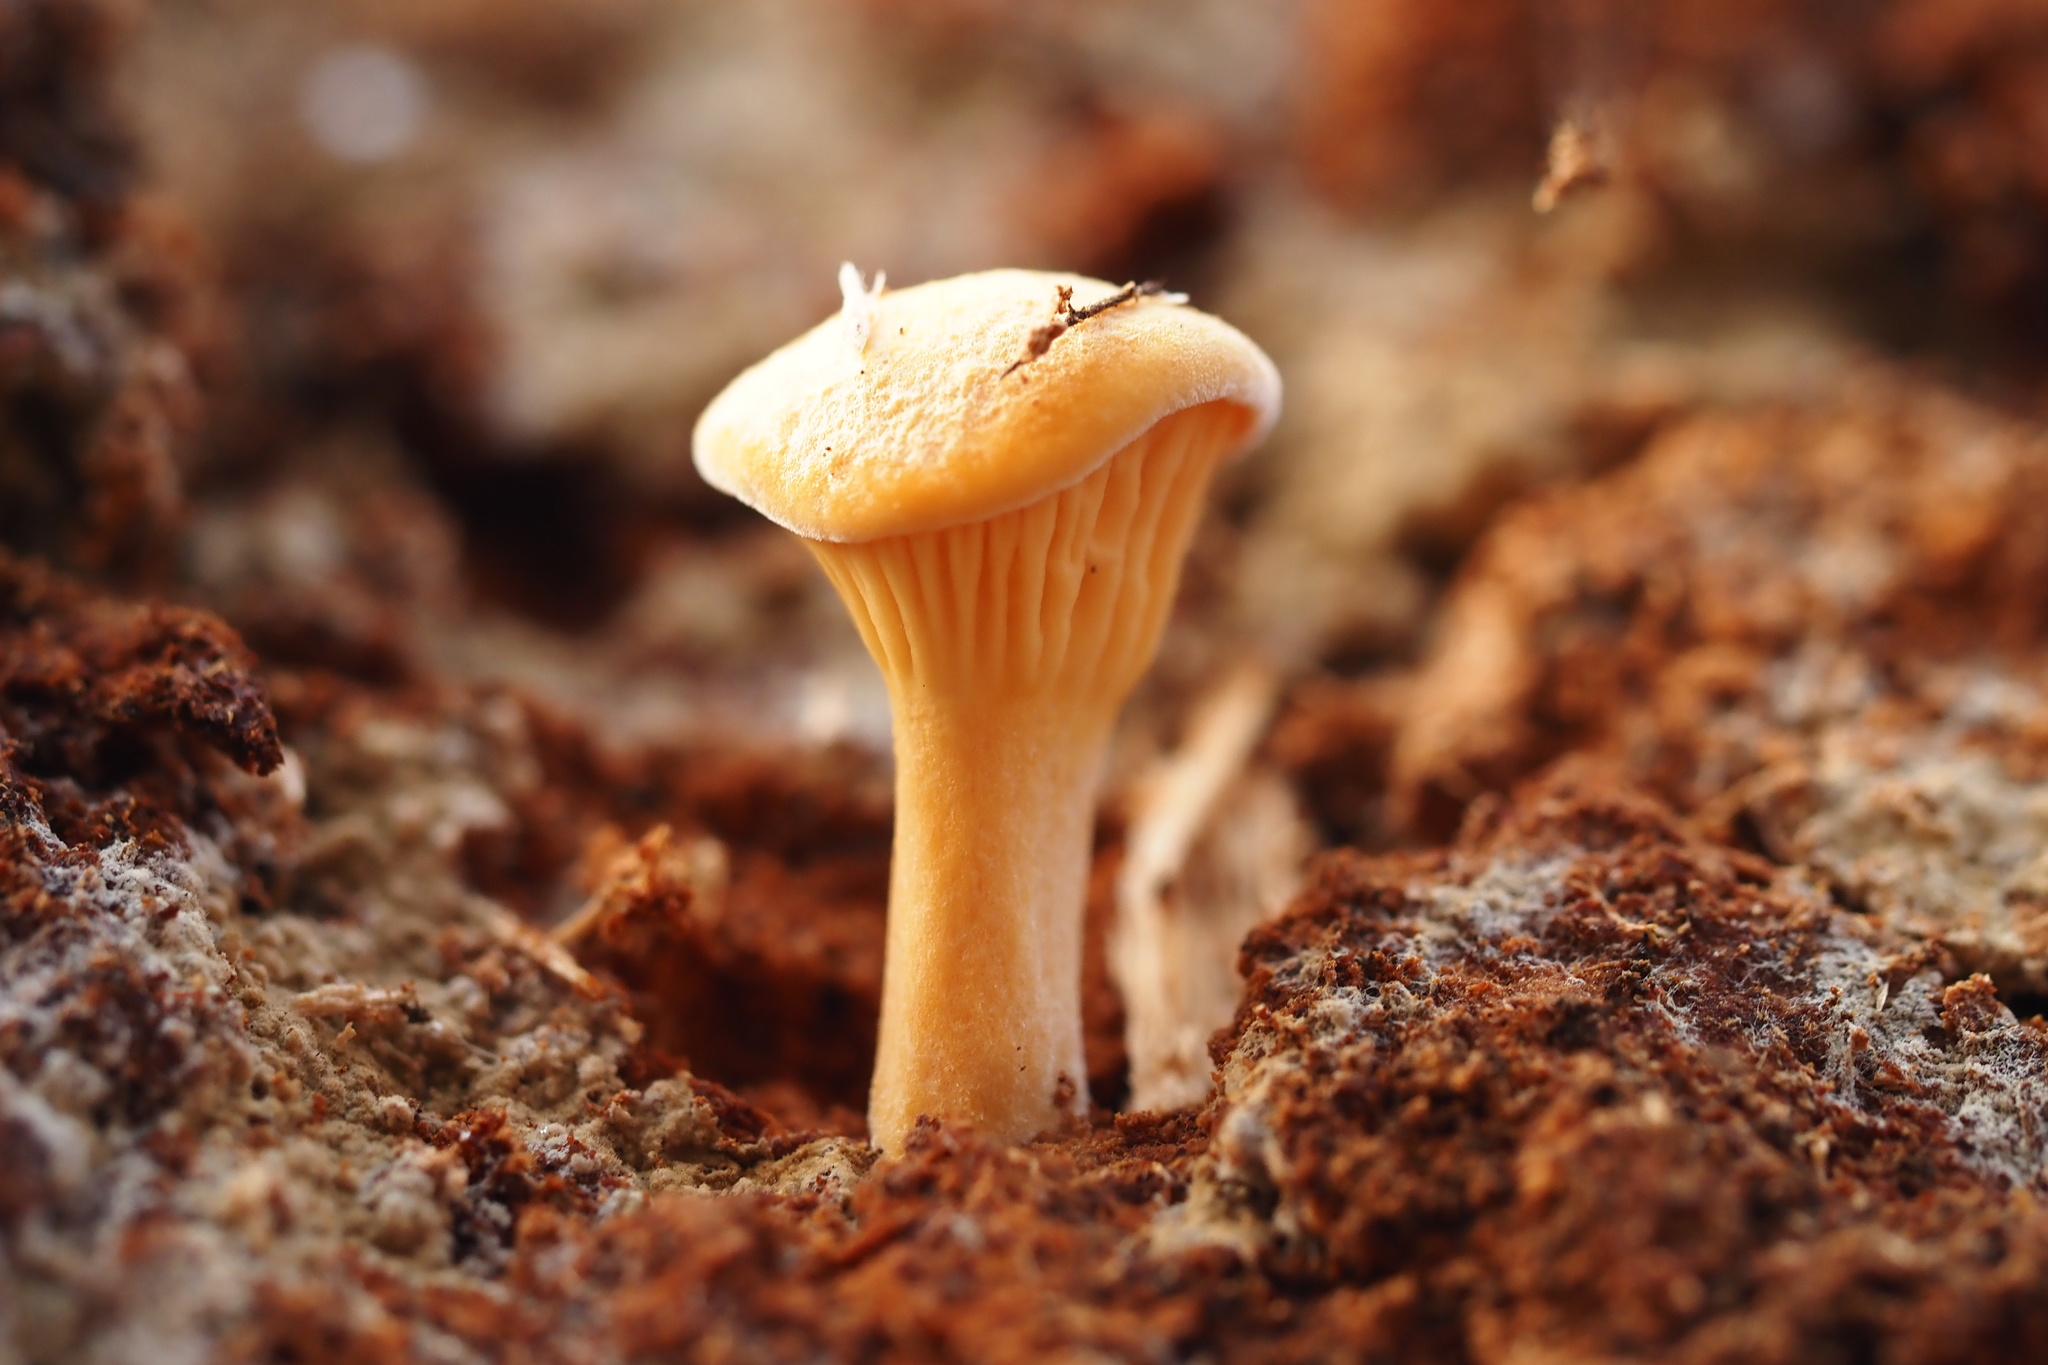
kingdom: Fungi
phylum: Basidiomycota
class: Agaricomycetes
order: Boletales
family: Hygrophoropsidaceae
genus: Hygrophoropsis
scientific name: Hygrophoropsis aurantiaca
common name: False chanterelle
